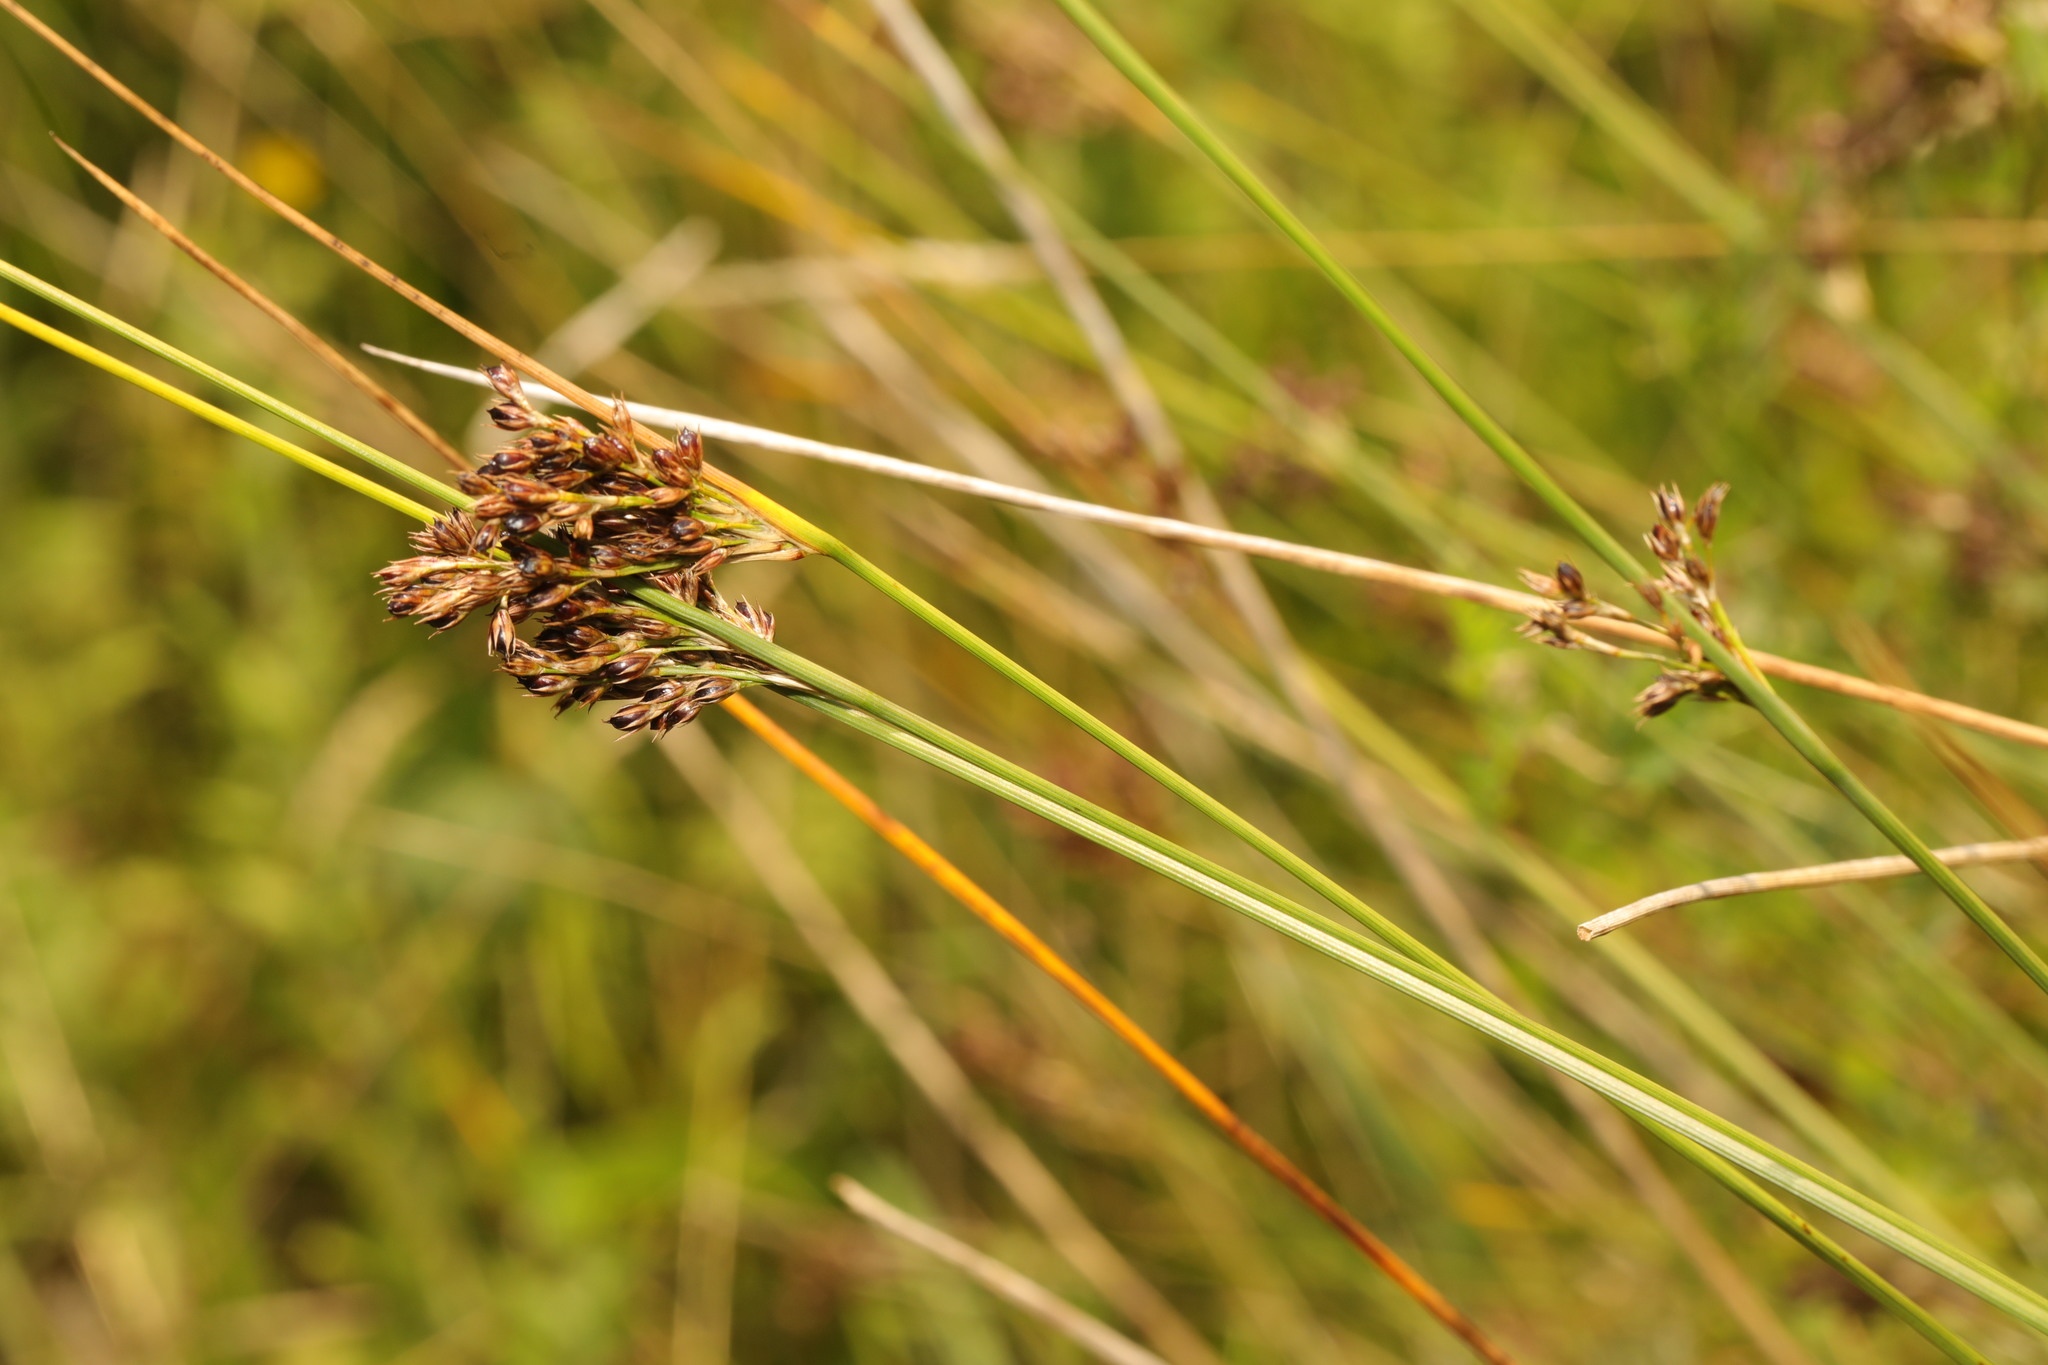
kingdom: Plantae
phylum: Tracheophyta
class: Liliopsida
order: Poales
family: Juncaceae
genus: Juncus
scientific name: Juncus inflexus
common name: Hard rush
